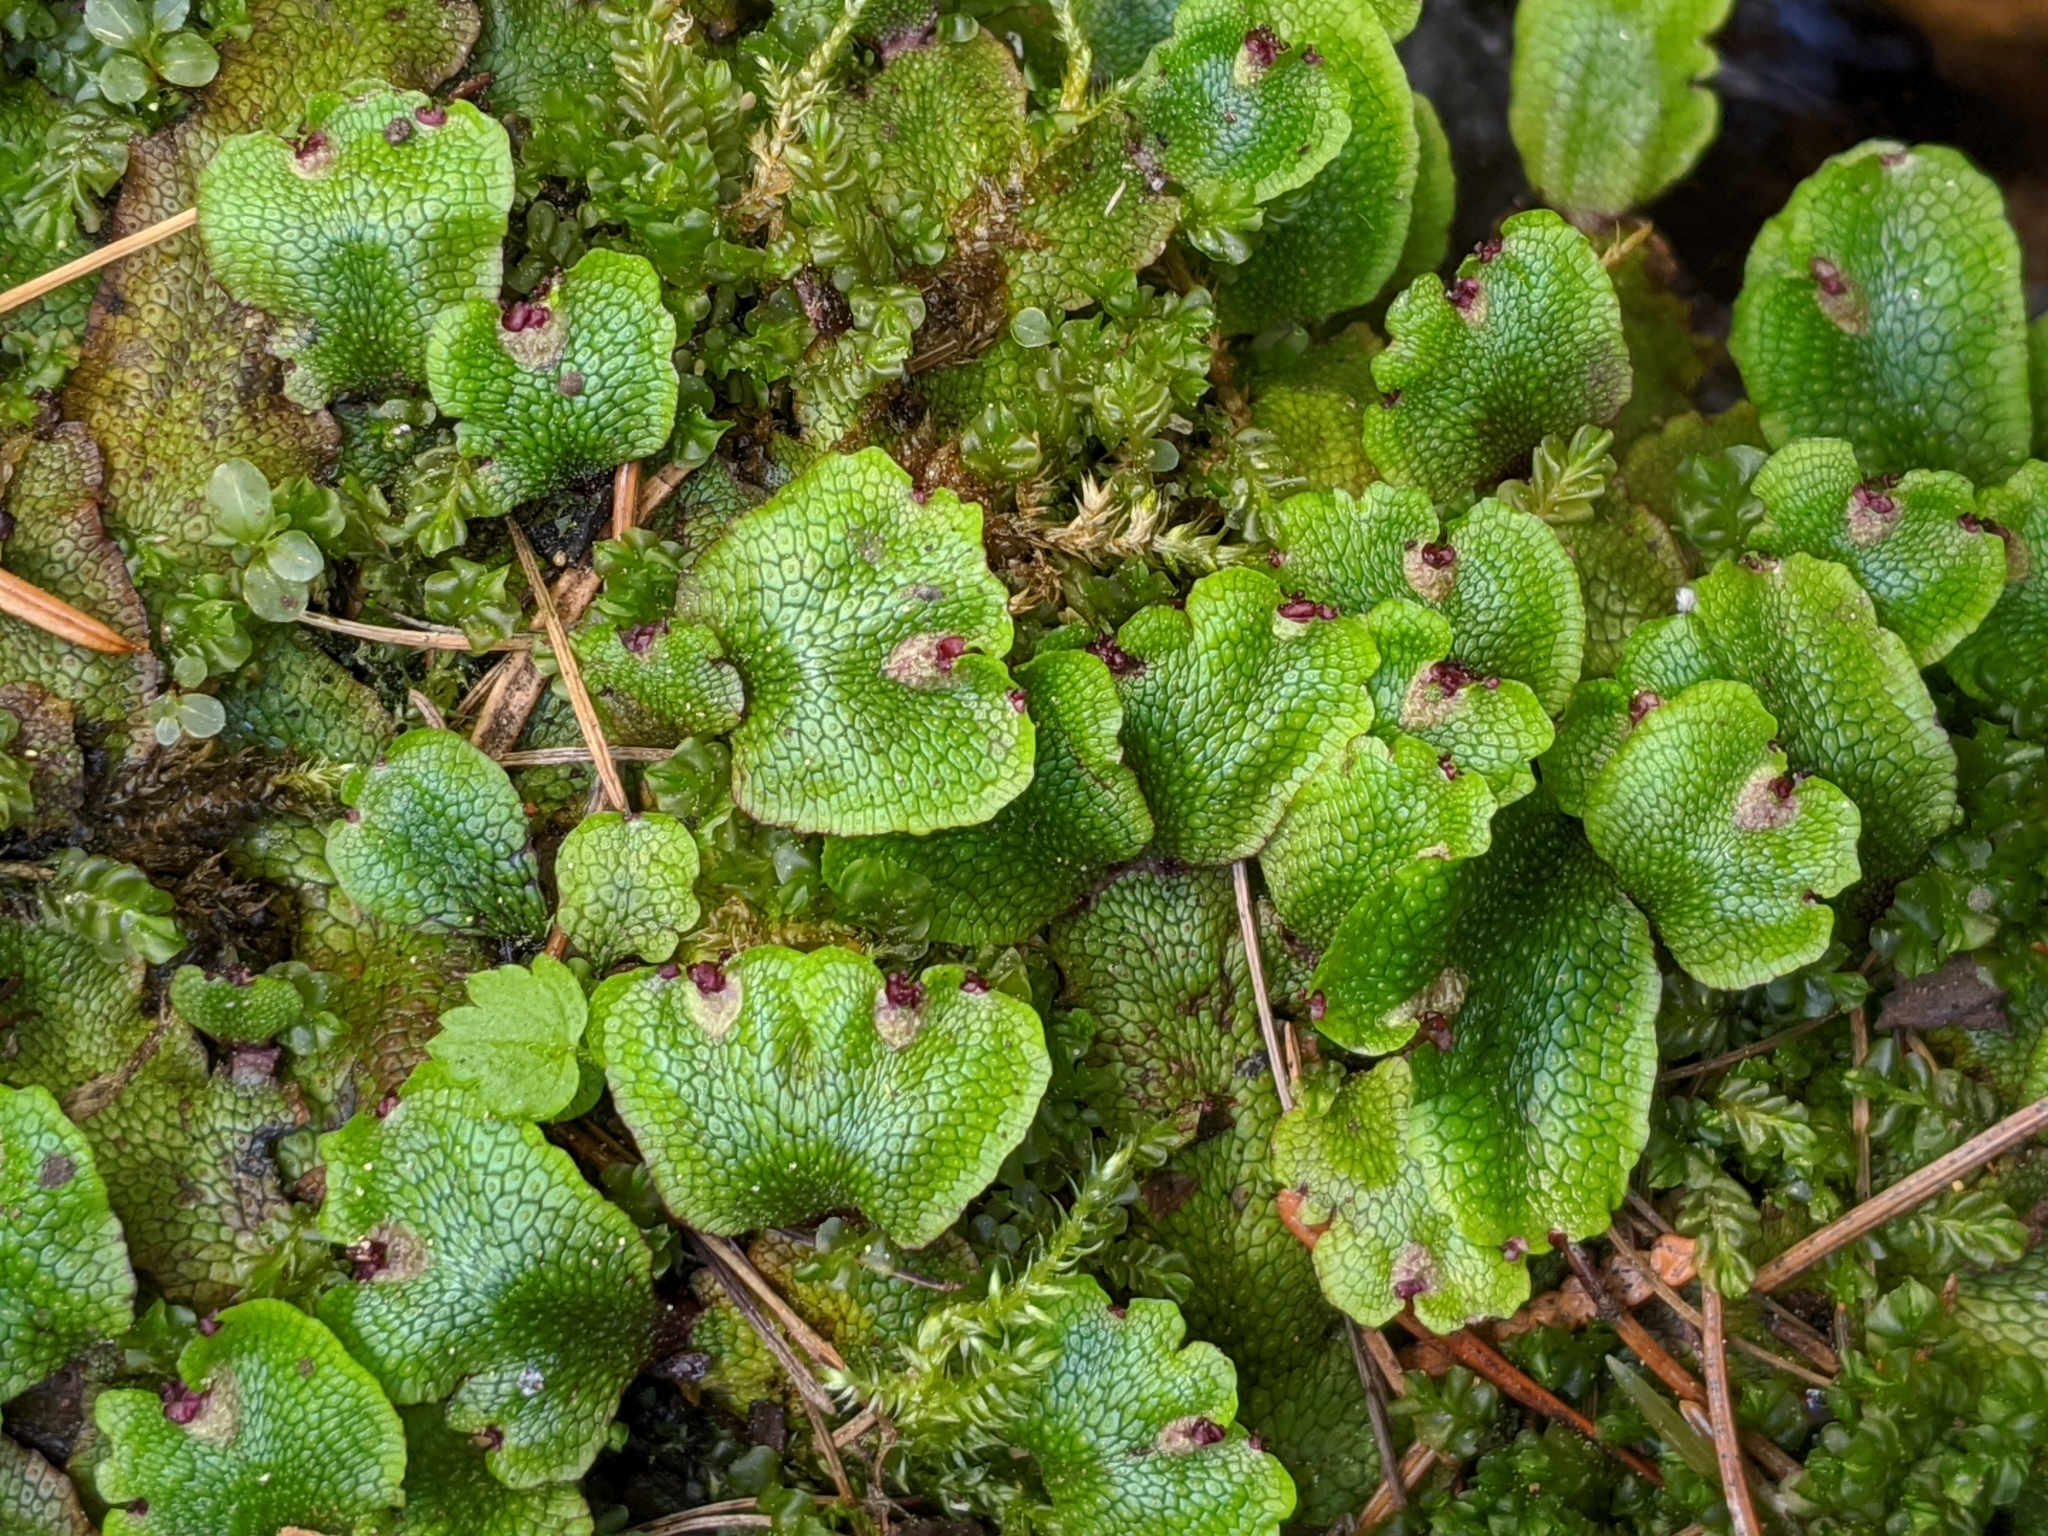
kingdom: Plantae
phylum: Marchantiophyta
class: Marchantiopsida
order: Marchantiales
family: Conocephalaceae
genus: Conocephalum
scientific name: Conocephalum salebrosum
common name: Cat-tongue liverwort
